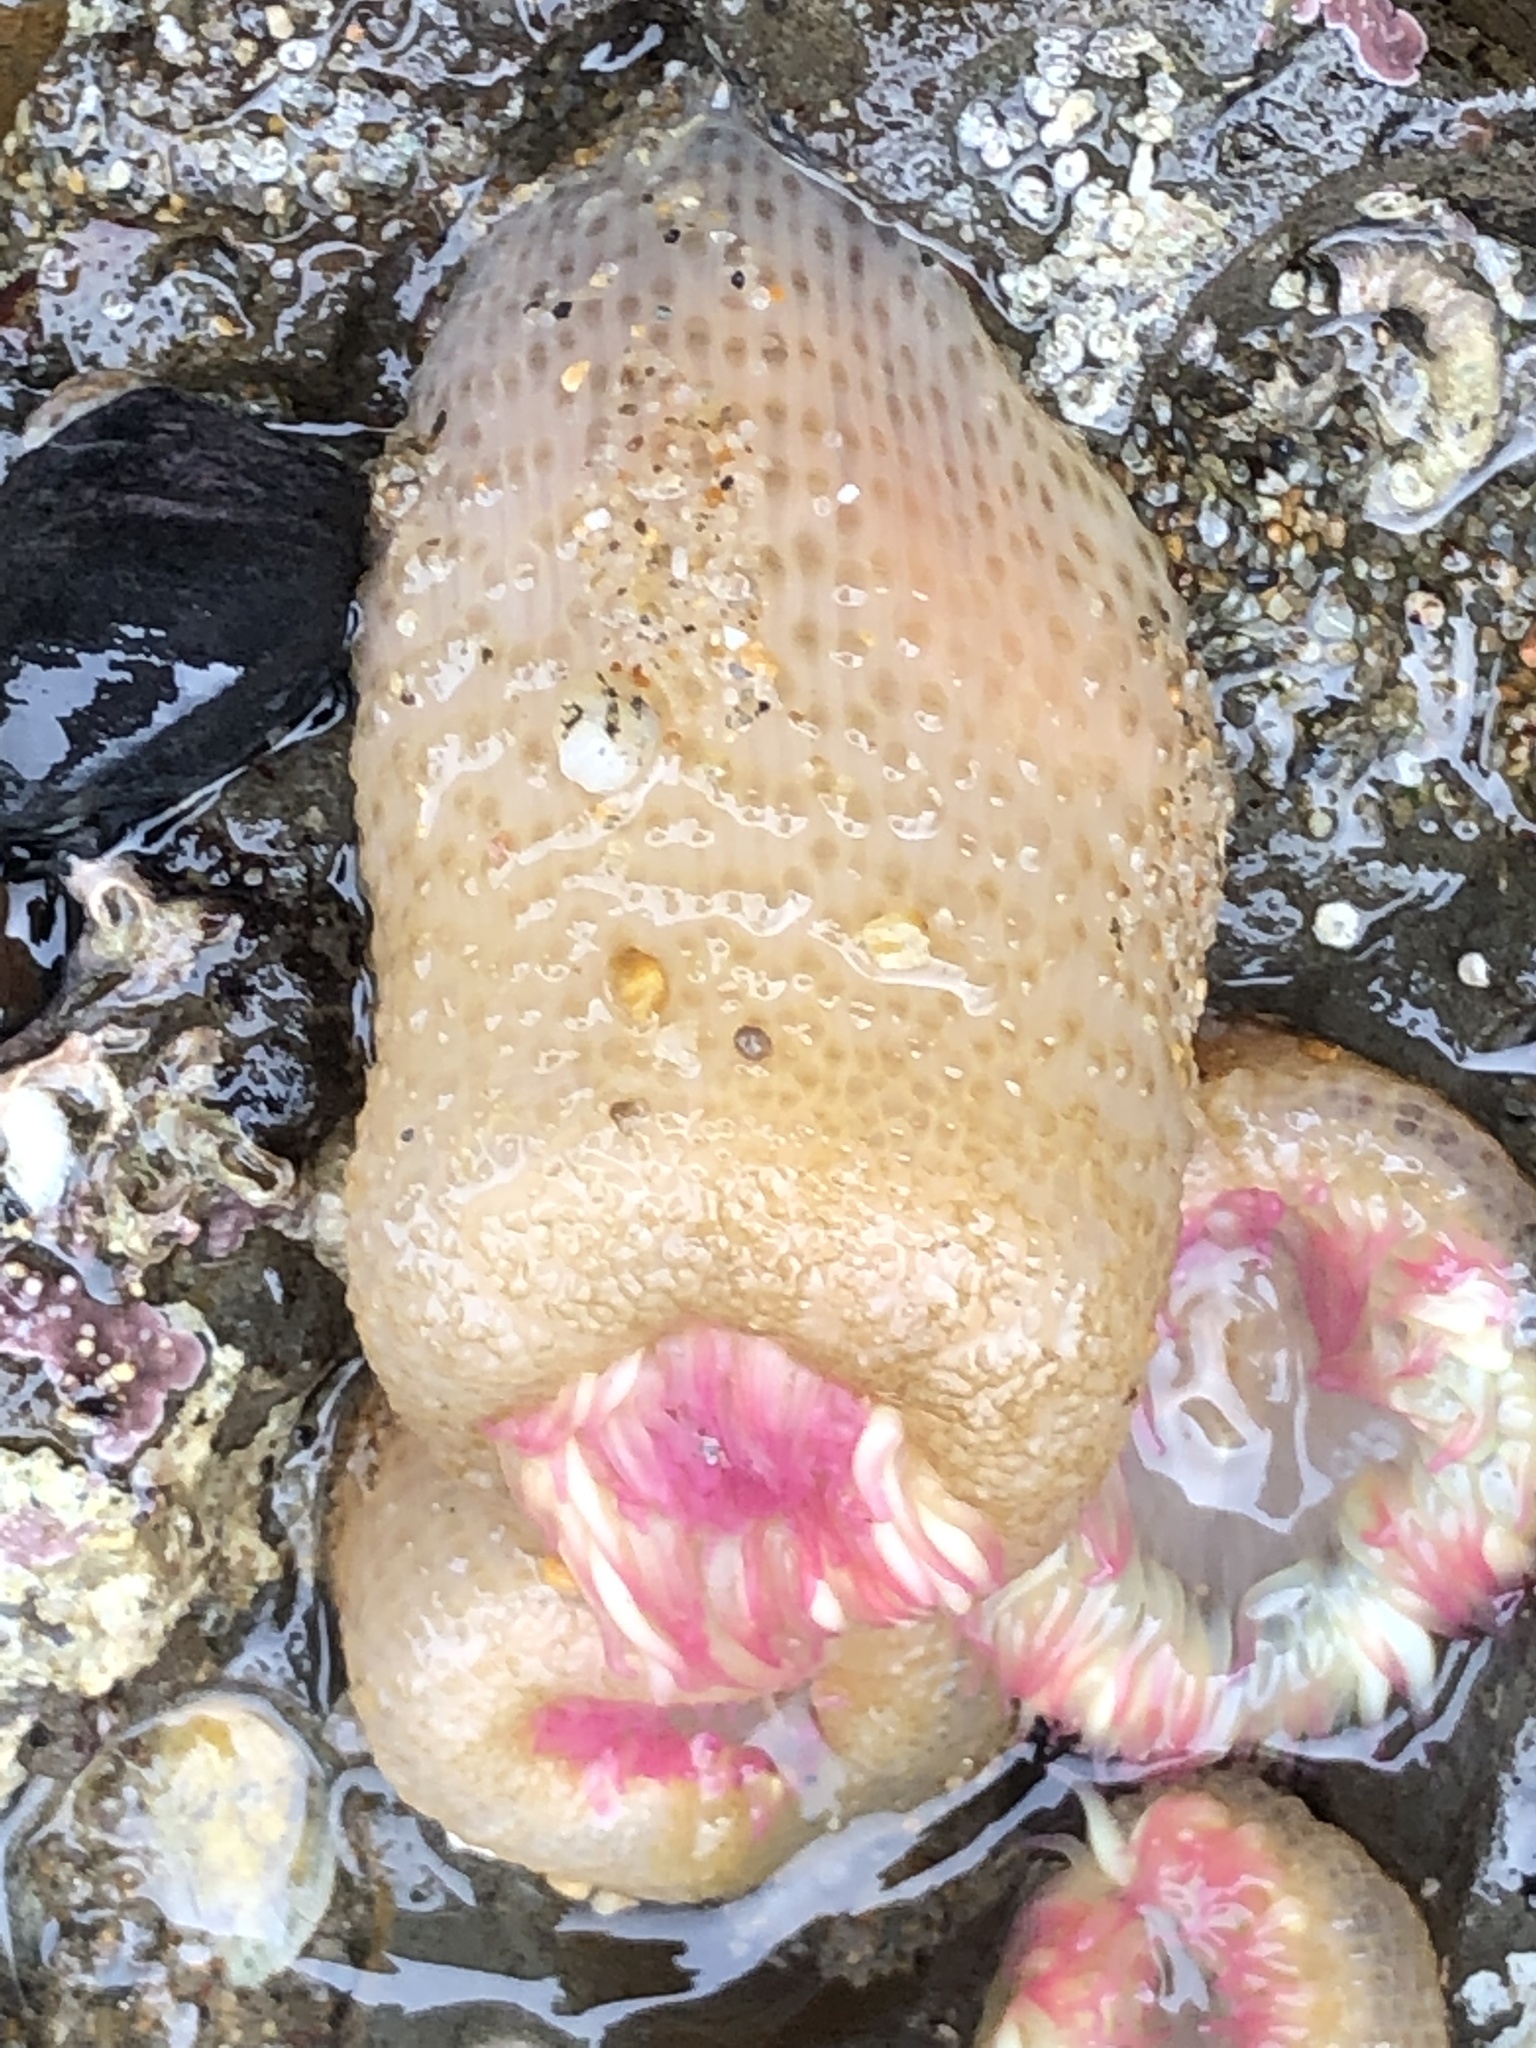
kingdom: Animalia
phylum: Cnidaria
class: Anthozoa
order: Actiniaria
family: Actiniidae
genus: Anthopleura
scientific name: Anthopleura elegantissima
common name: Clonal anemone
